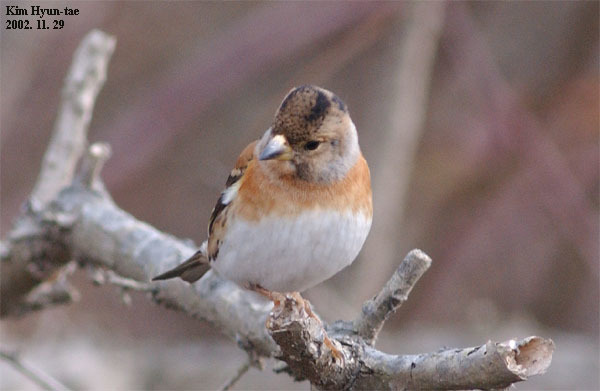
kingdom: Animalia
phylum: Chordata
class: Aves
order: Passeriformes
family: Fringillidae
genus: Fringilla
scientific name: Fringilla montifringilla
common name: Brambling
